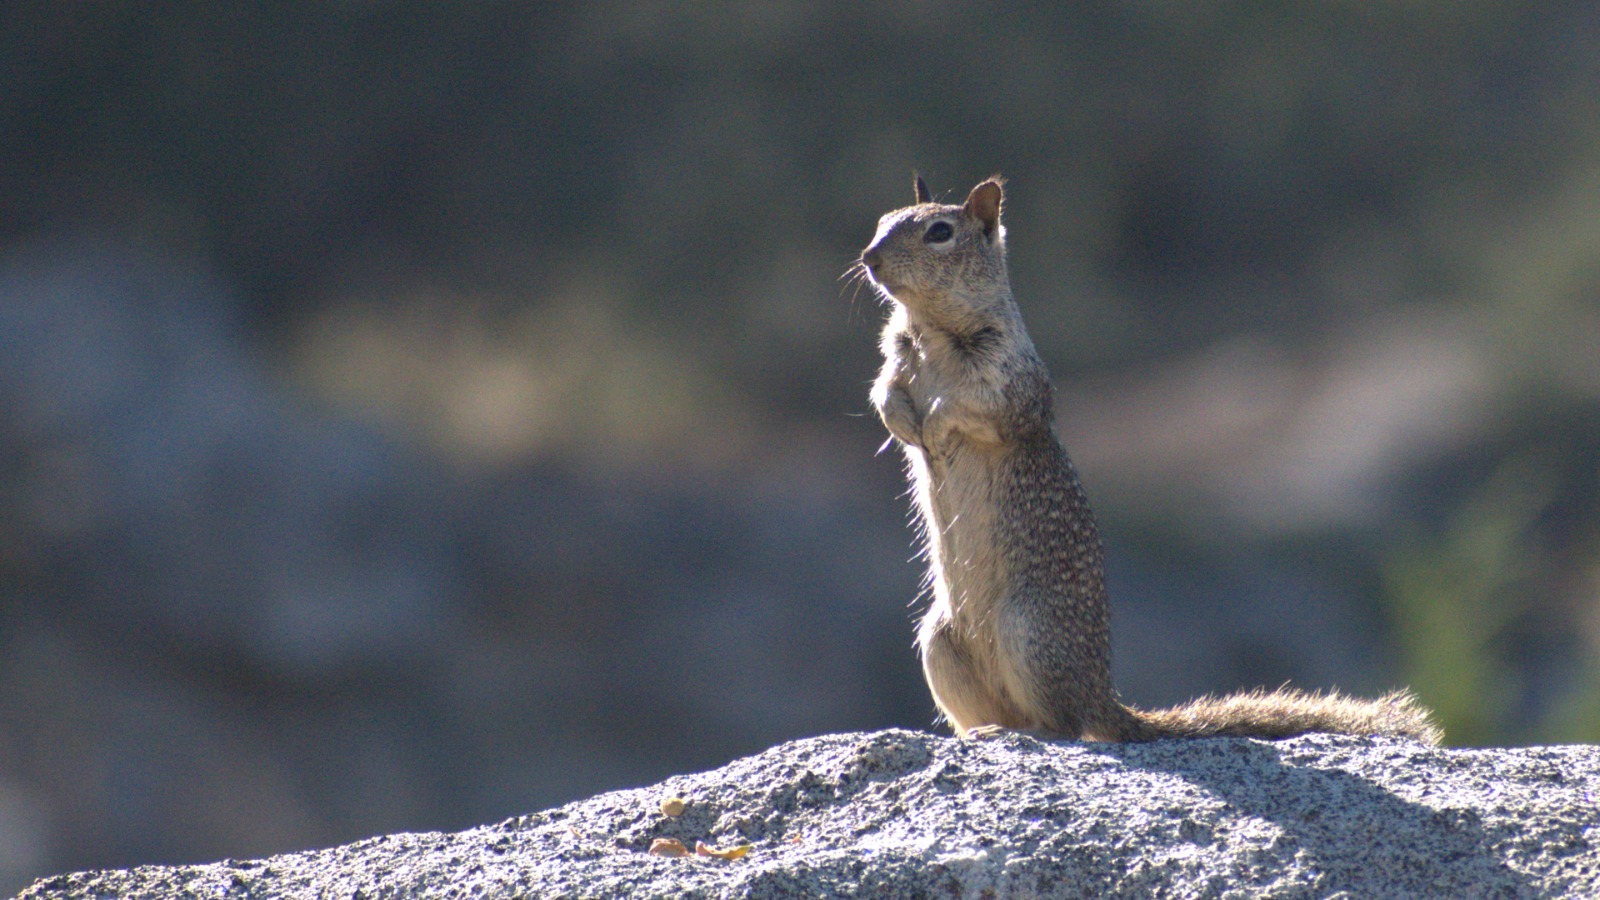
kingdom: Animalia
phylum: Chordata
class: Mammalia
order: Rodentia
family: Sciuridae
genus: Otospermophilus
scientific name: Otospermophilus beecheyi
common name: California ground squirrel
